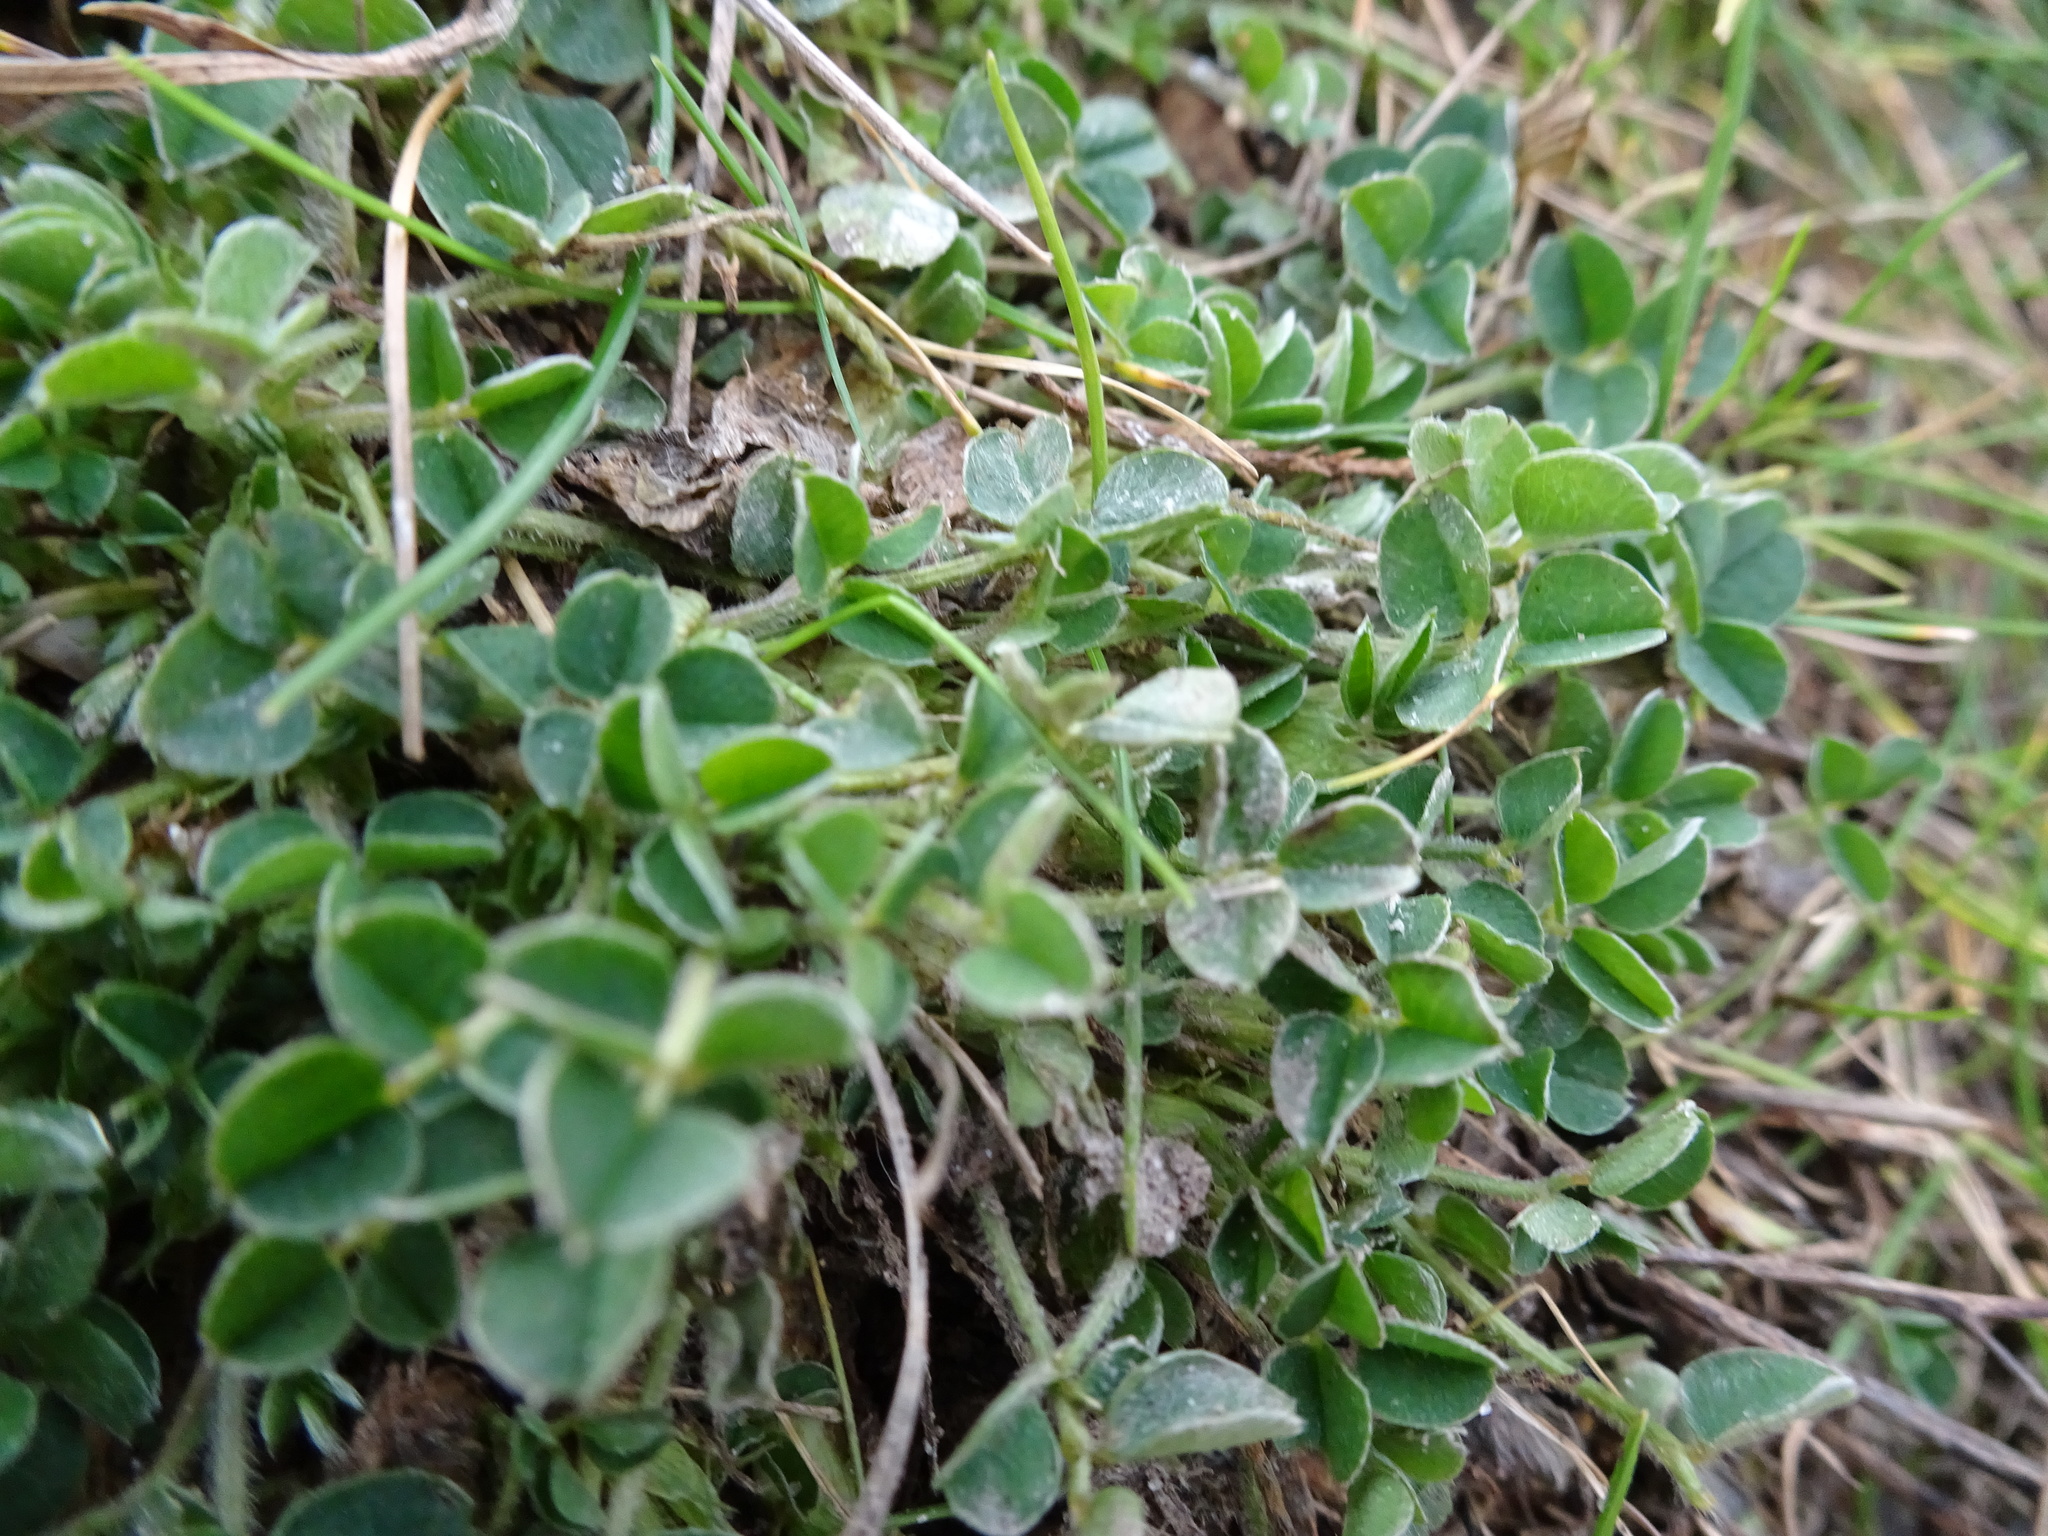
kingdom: Plantae
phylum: Tracheophyta
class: Magnoliopsida
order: Fabales
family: Fabaceae
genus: Medicago
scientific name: Medicago lupulina
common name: Black medick
